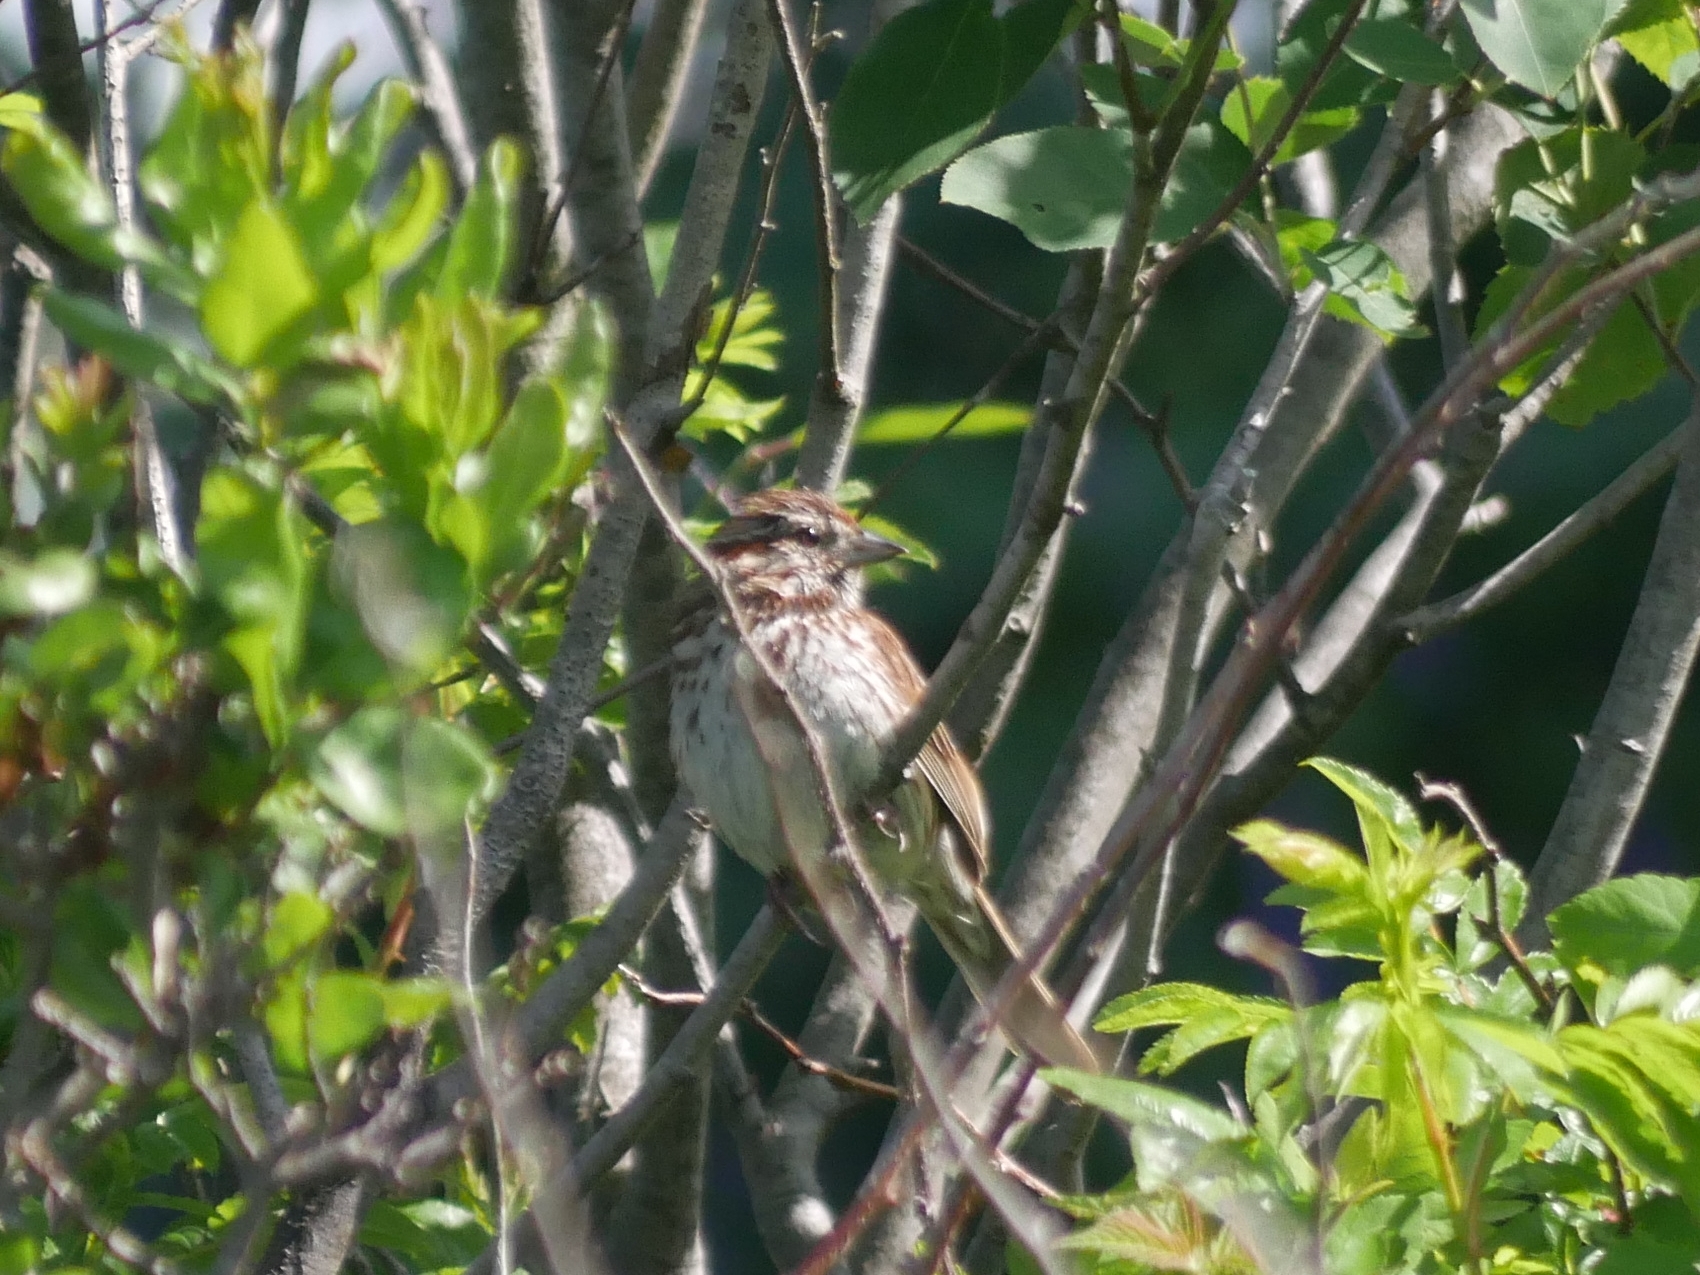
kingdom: Animalia
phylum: Chordata
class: Aves
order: Passeriformes
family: Passerellidae
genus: Melospiza
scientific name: Melospiza melodia
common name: Song sparrow
